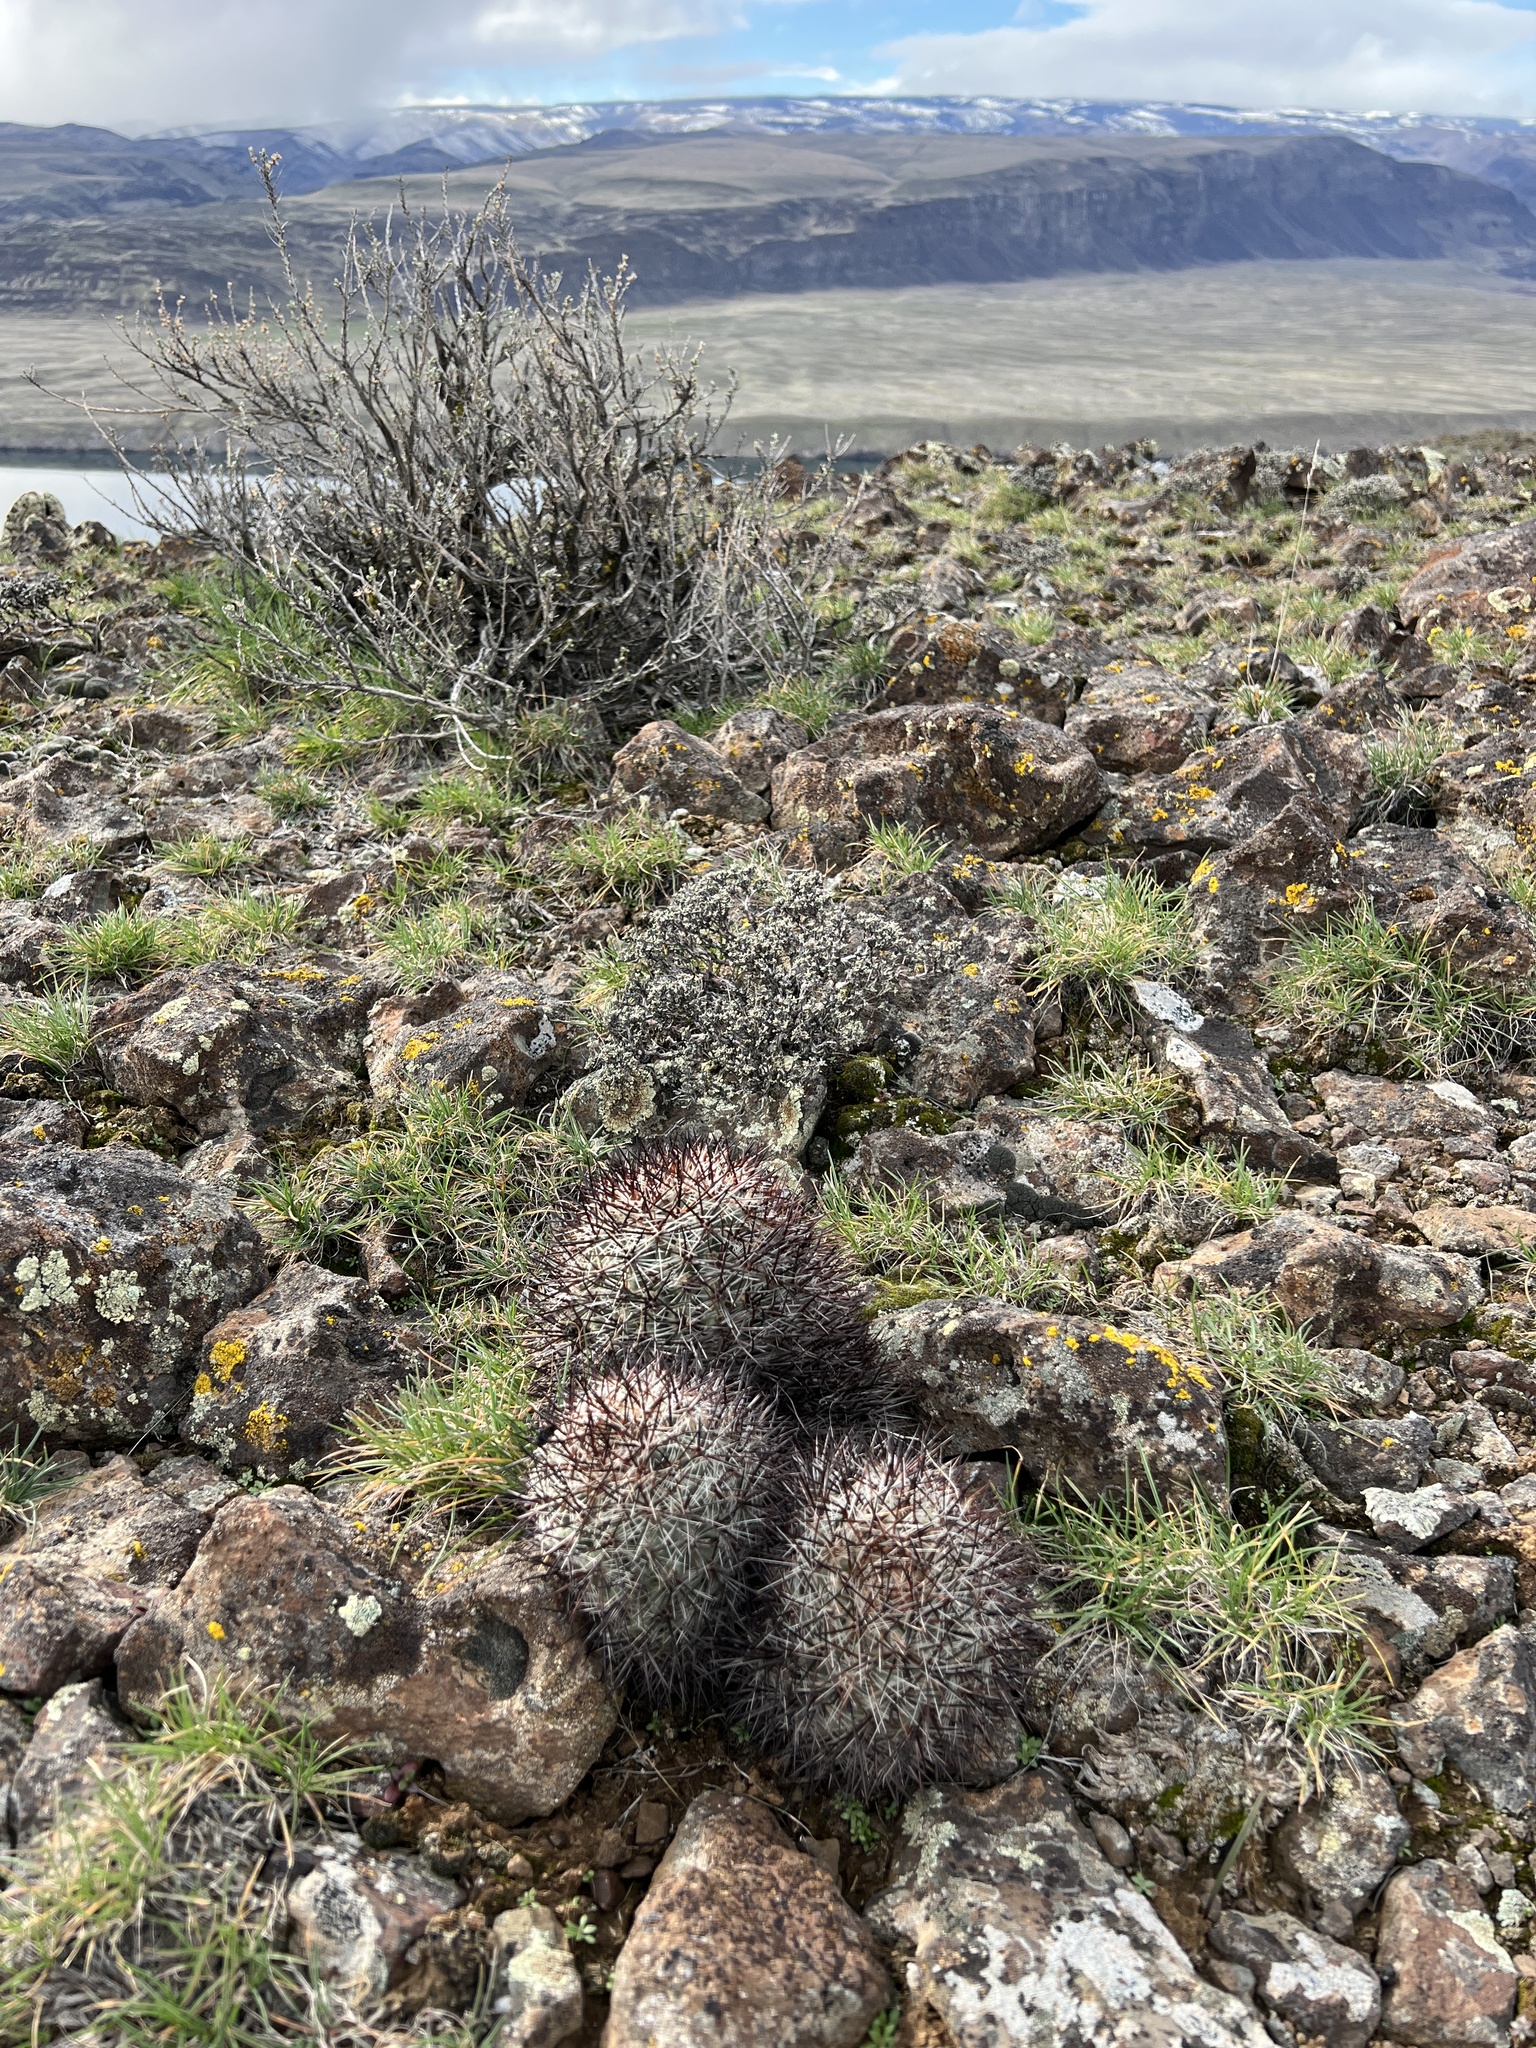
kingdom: Plantae
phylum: Tracheophyta
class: Magnoliopsida
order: Caryophyllales
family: Cactaceae
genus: Pediocactus
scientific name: Pediocactus nigrispinus
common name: Simpson's hedgehog cactus
